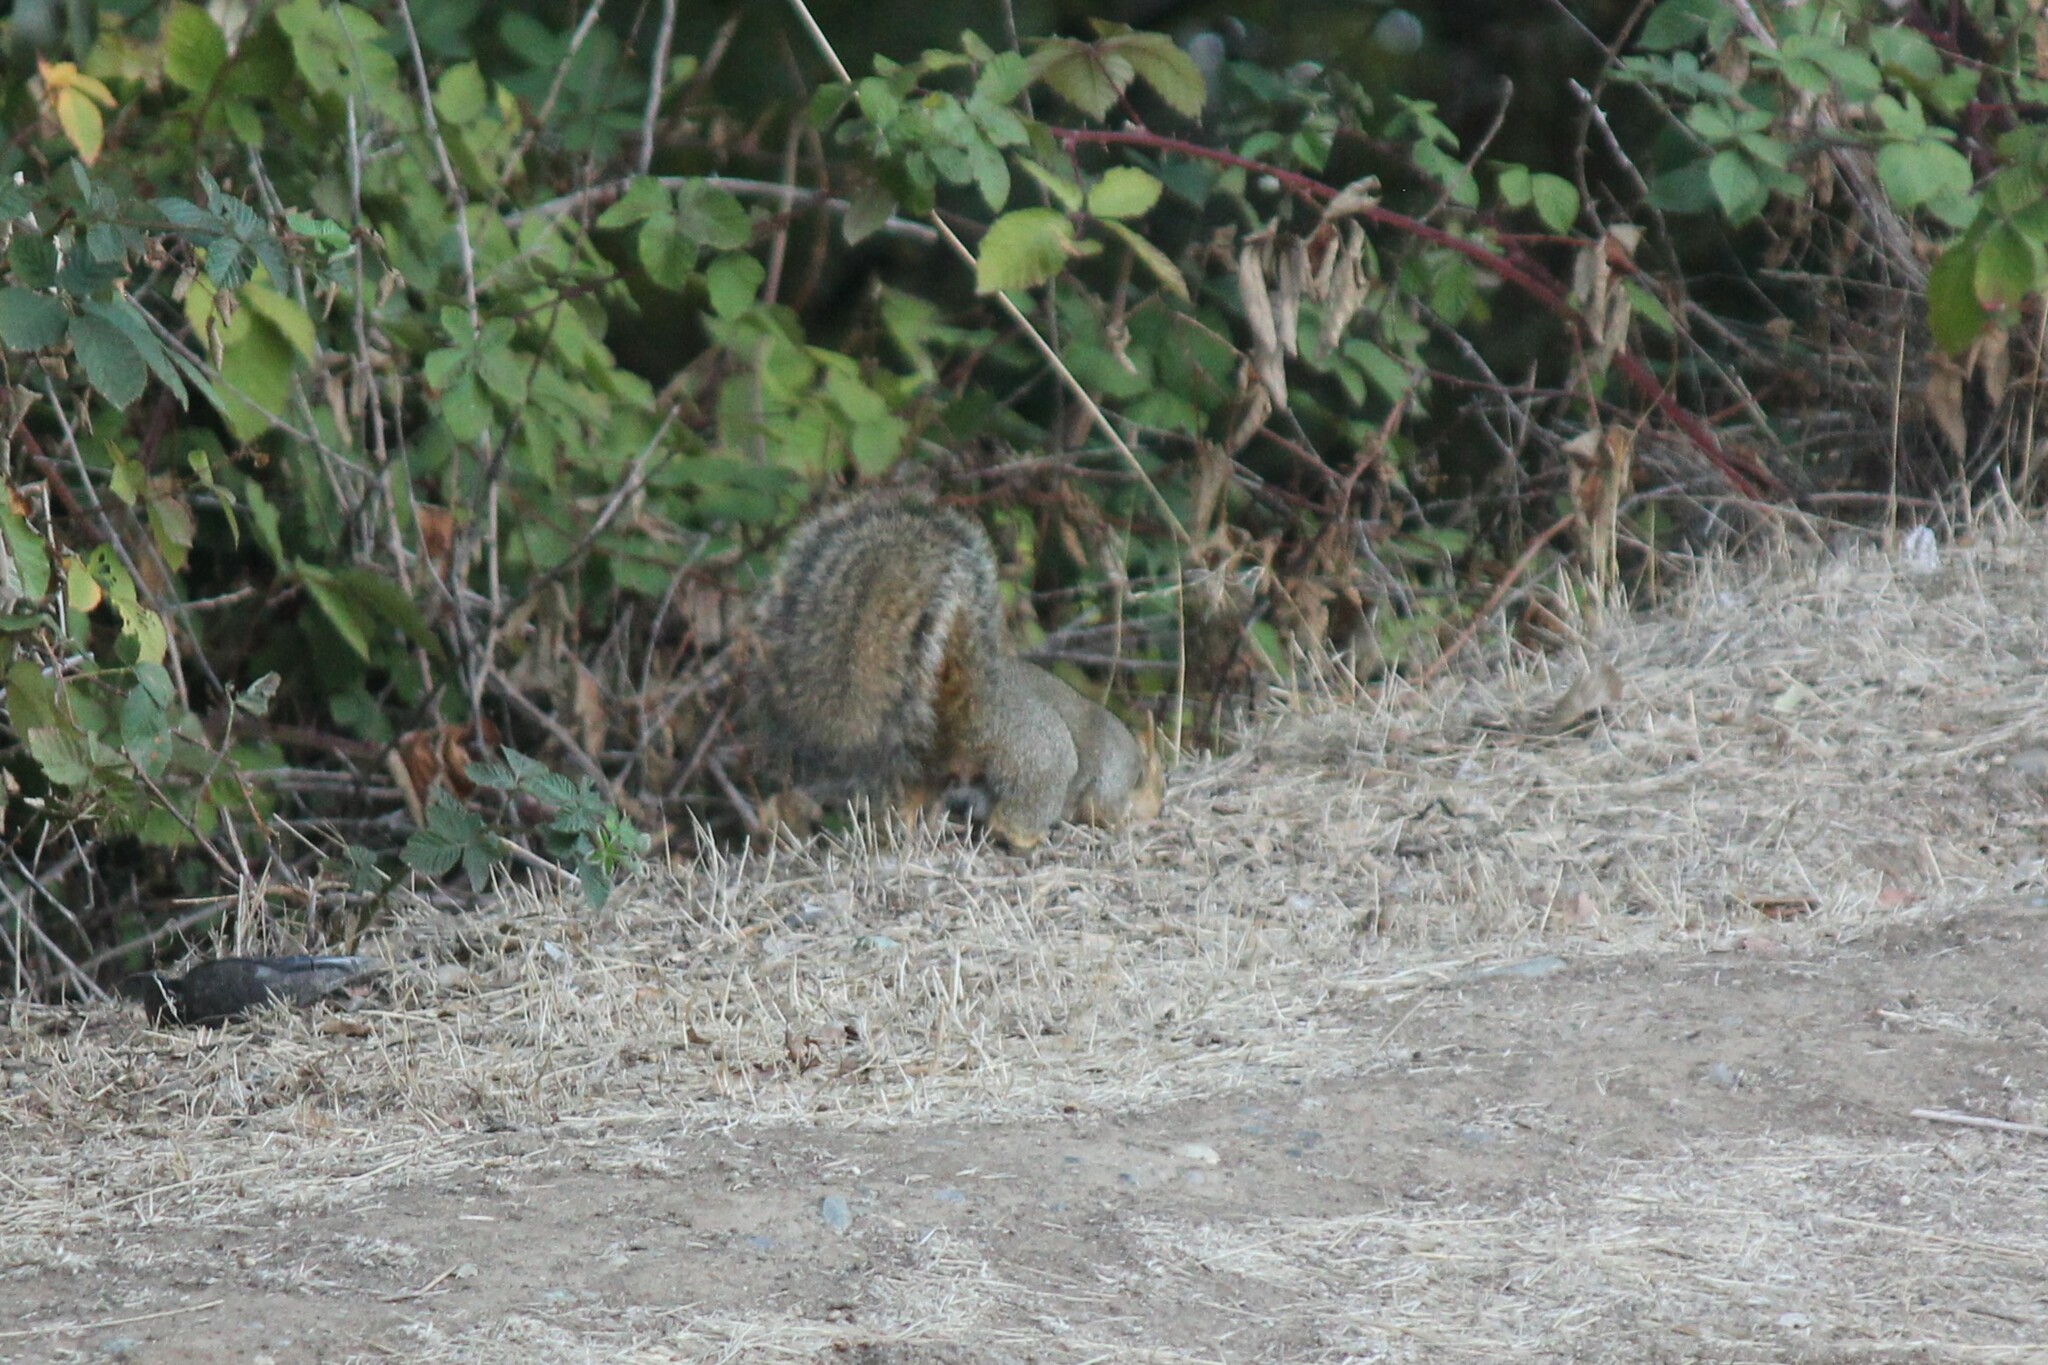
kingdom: Animalia
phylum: Chordata
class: Mammalia
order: Rodentia
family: Sciuridae
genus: Sciurus
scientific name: Sciurus niger
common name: Fox squirrel
